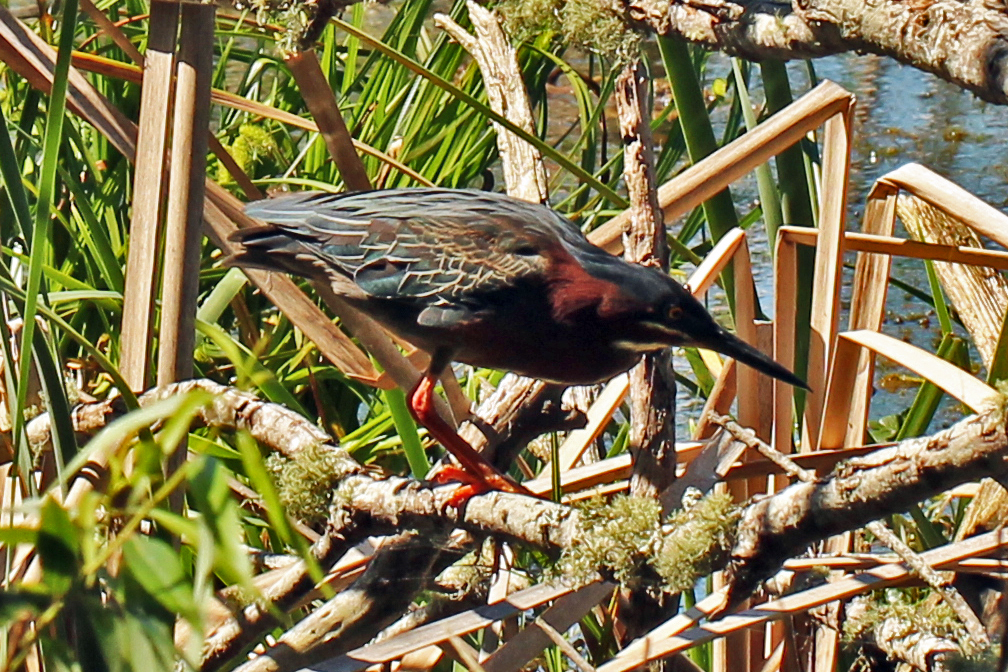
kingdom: Animalia
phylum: Chordata
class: Aves
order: Pelecaniformes
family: Ardeidae
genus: Butorides
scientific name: Butorides virescens
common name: Green heron
